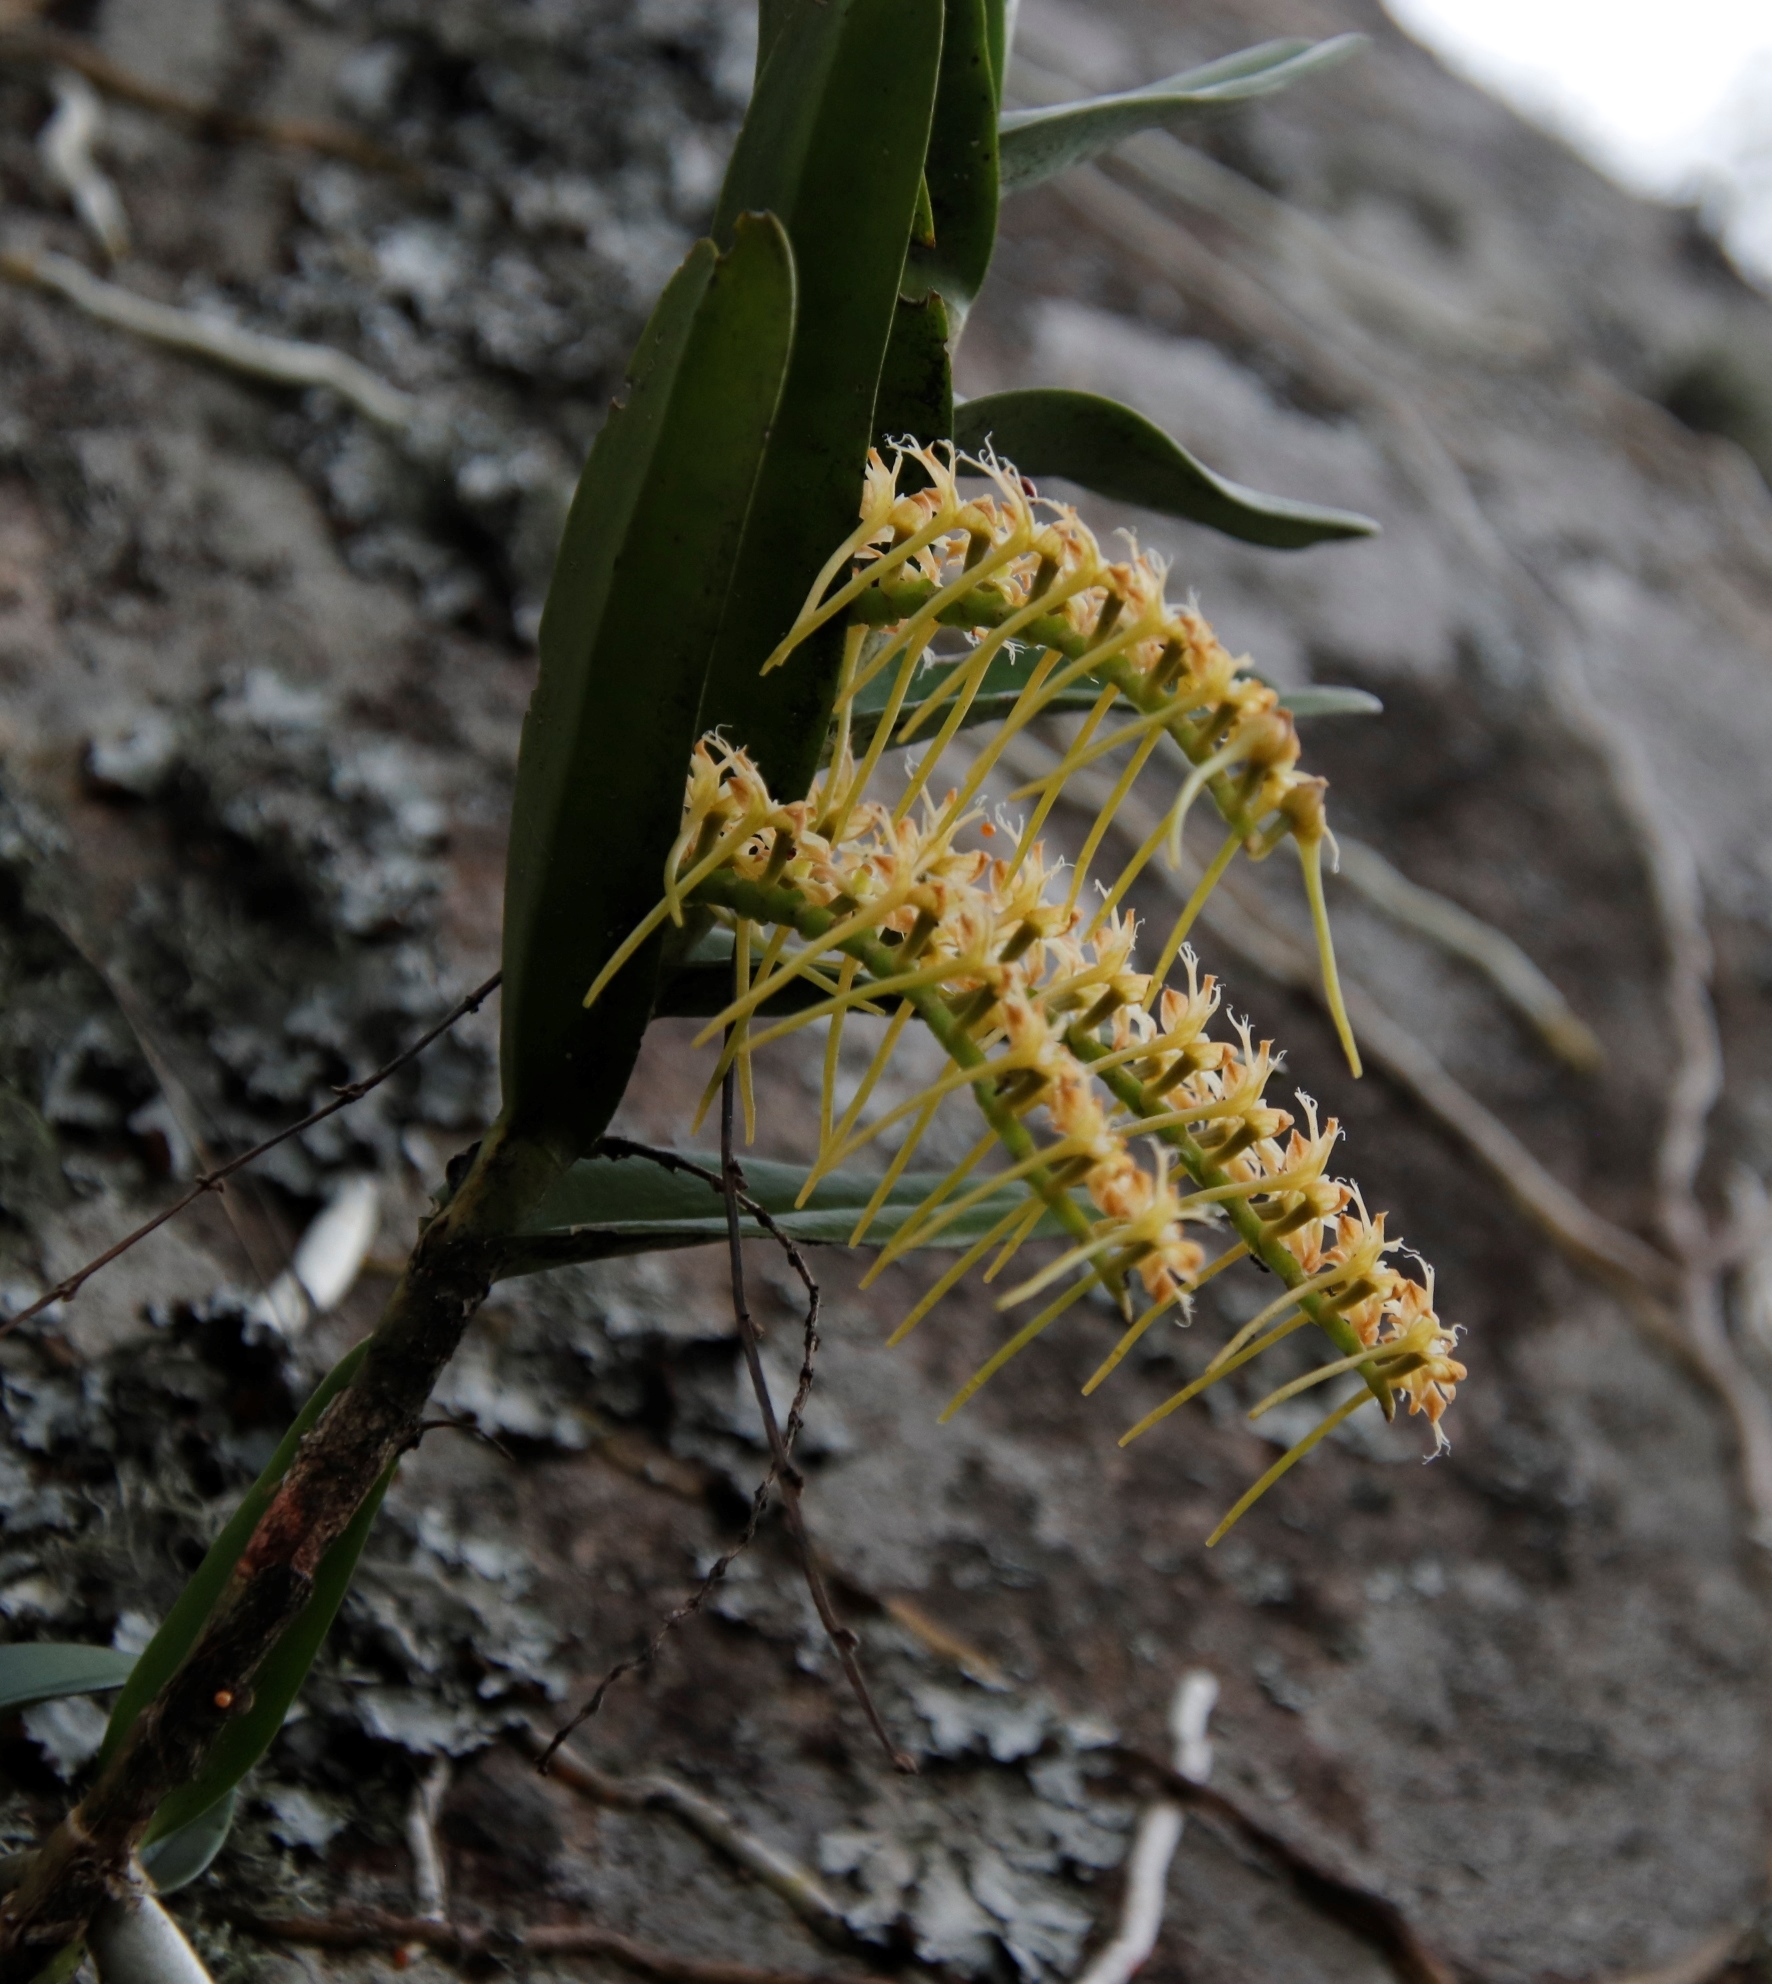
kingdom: Plantae
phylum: Tracheophyta
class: Liliopsida
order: Asparagales
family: Orchidaceae
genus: Tridactyle
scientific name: Tridactyle bicaudata
